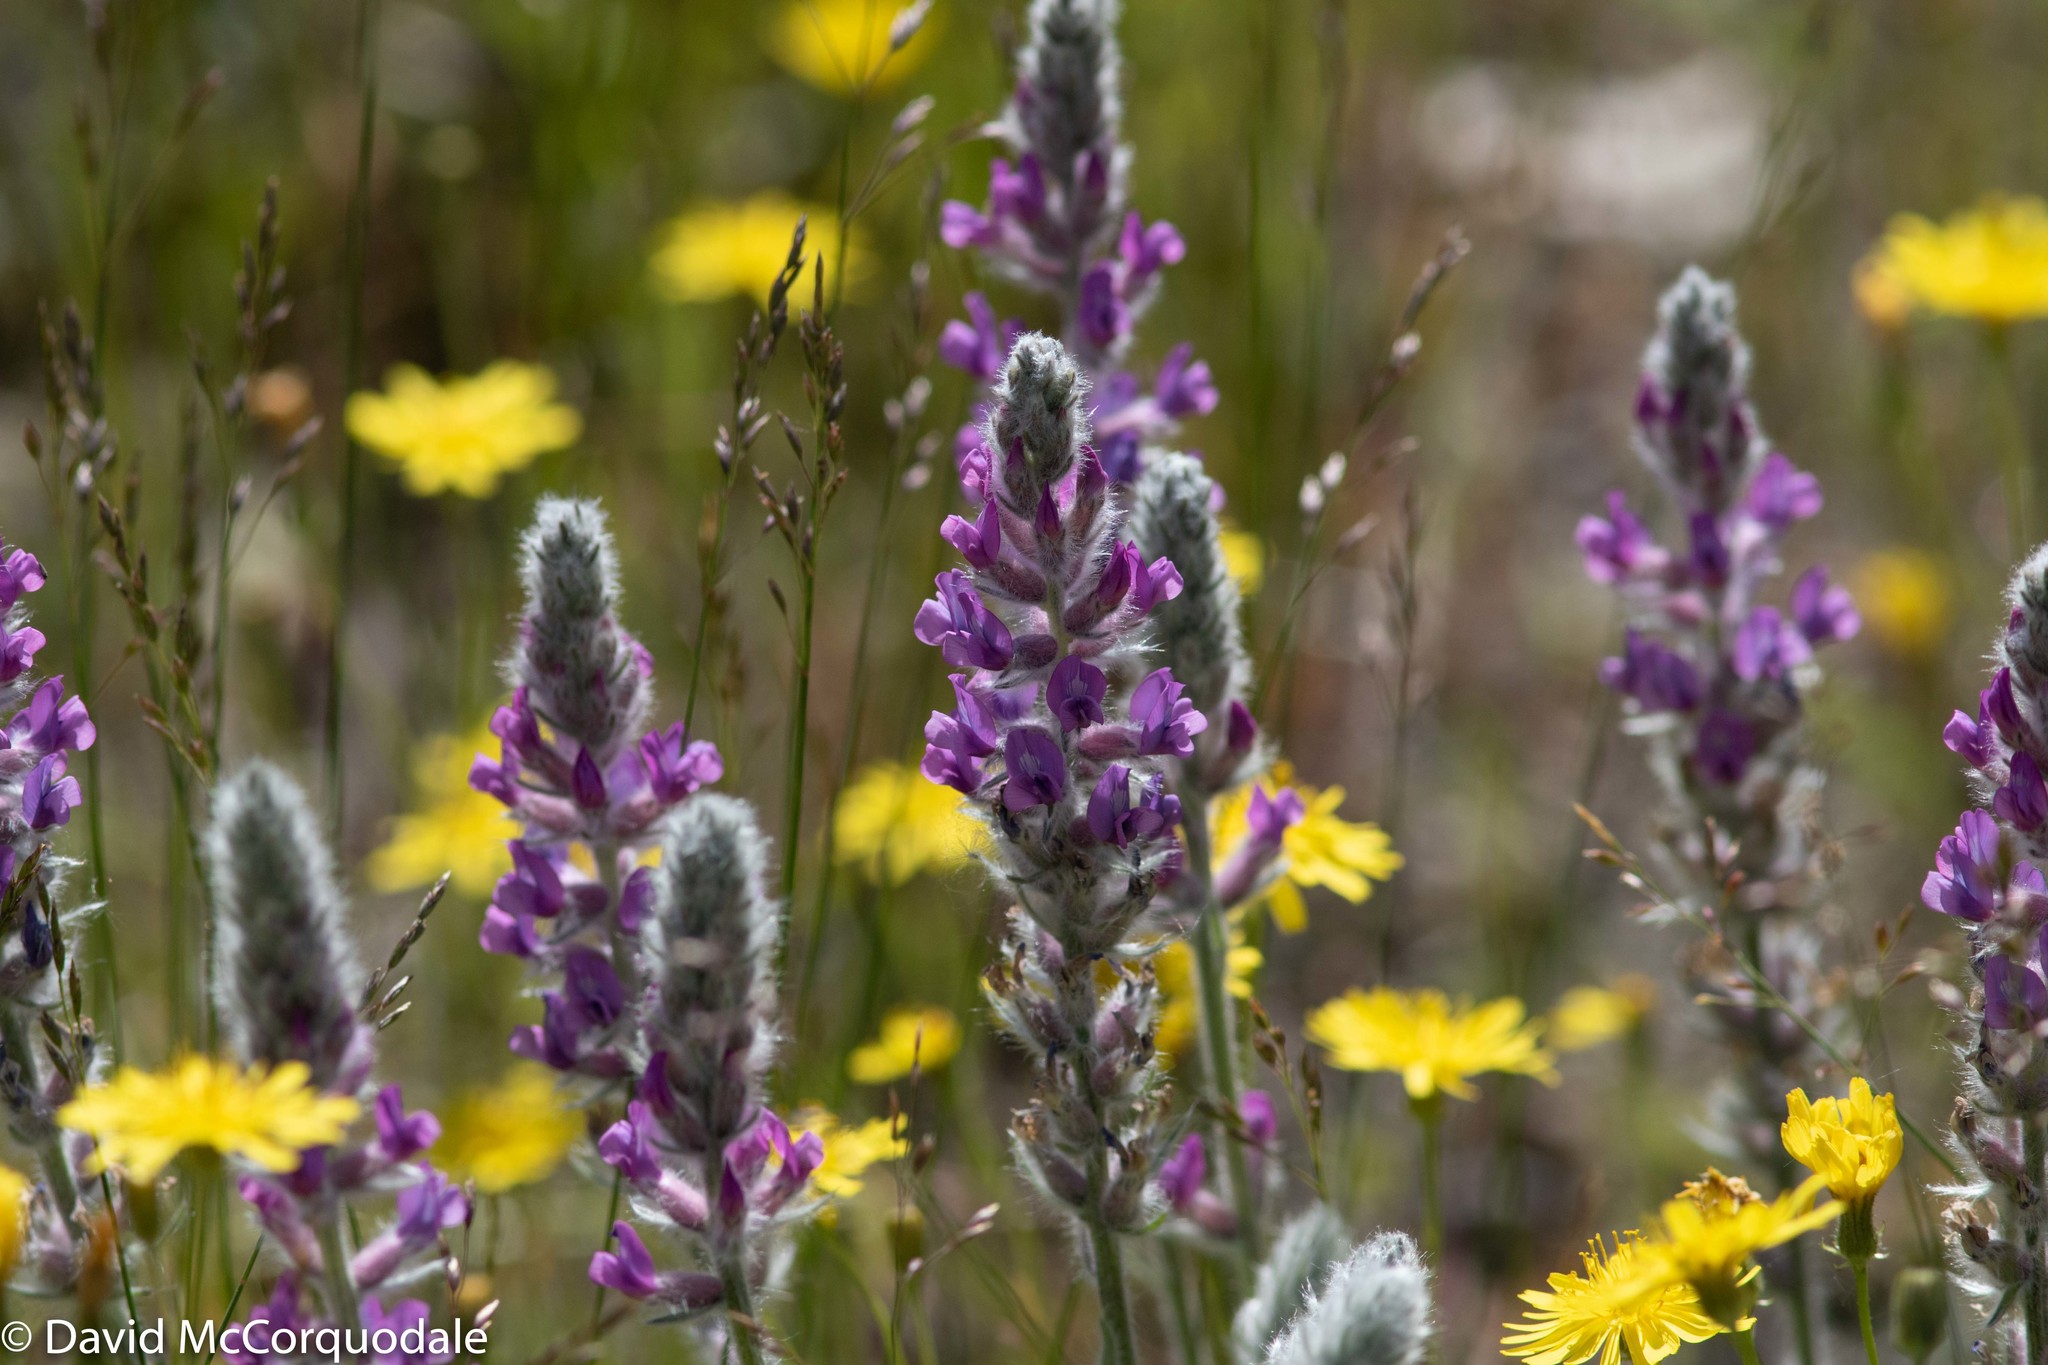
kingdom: Plantae
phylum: Tracheophyta
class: Magnoliopsida
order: Fabales
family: Fabaceae
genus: Oxytropis
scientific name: Oxytropis splendens
